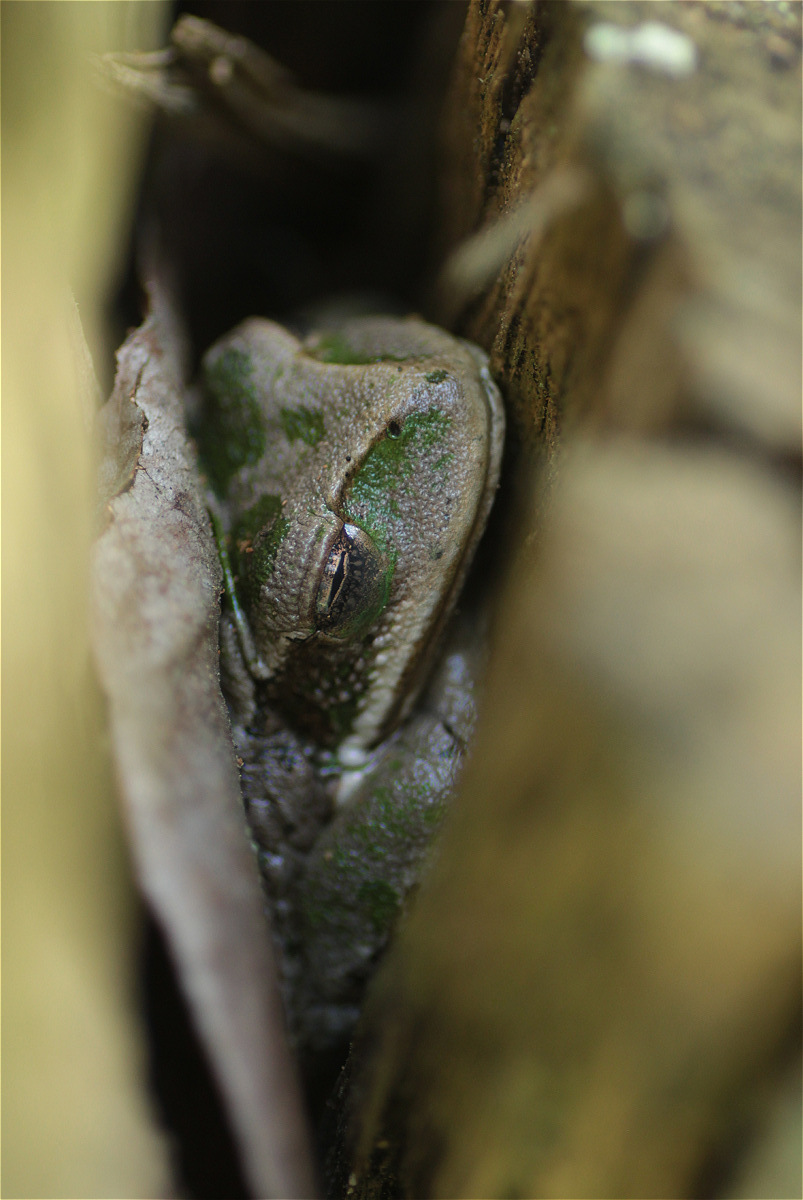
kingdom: Animalia
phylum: Chordata
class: Amphibia
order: Anura
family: Hemiphractidae
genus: Gastrotheca
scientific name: Gastrotheca cuencana
